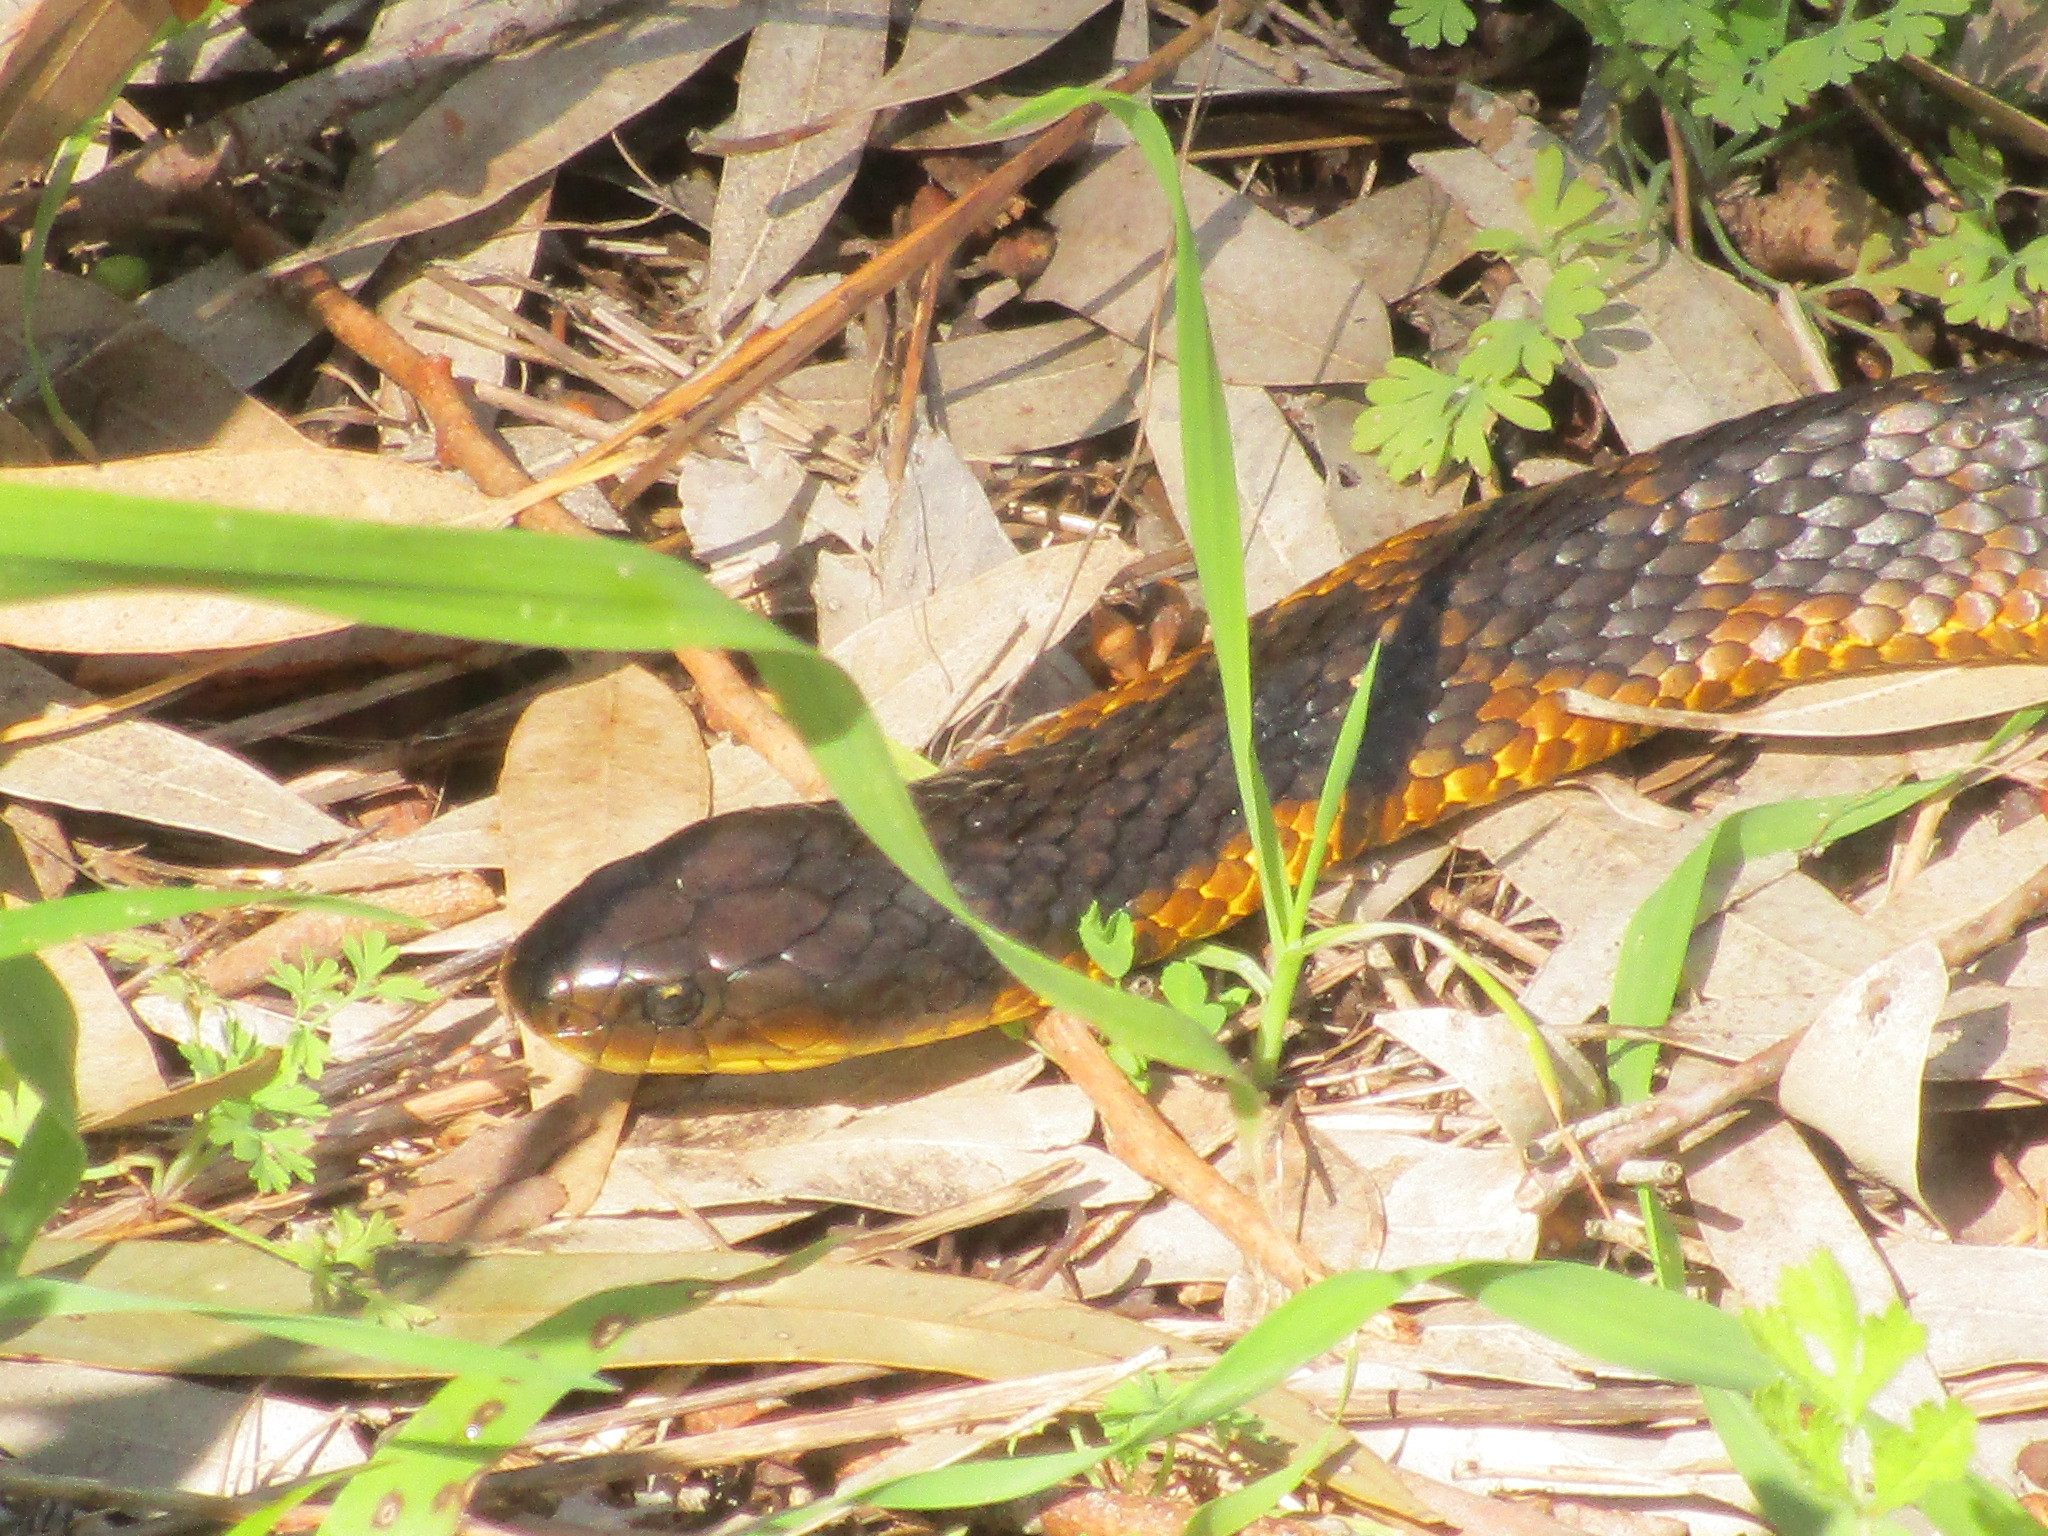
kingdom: Animalia
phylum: Chordata
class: Squamata
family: Elapidae
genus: Notechis
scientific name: Notechis scutatus
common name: Mainland tiger snake
